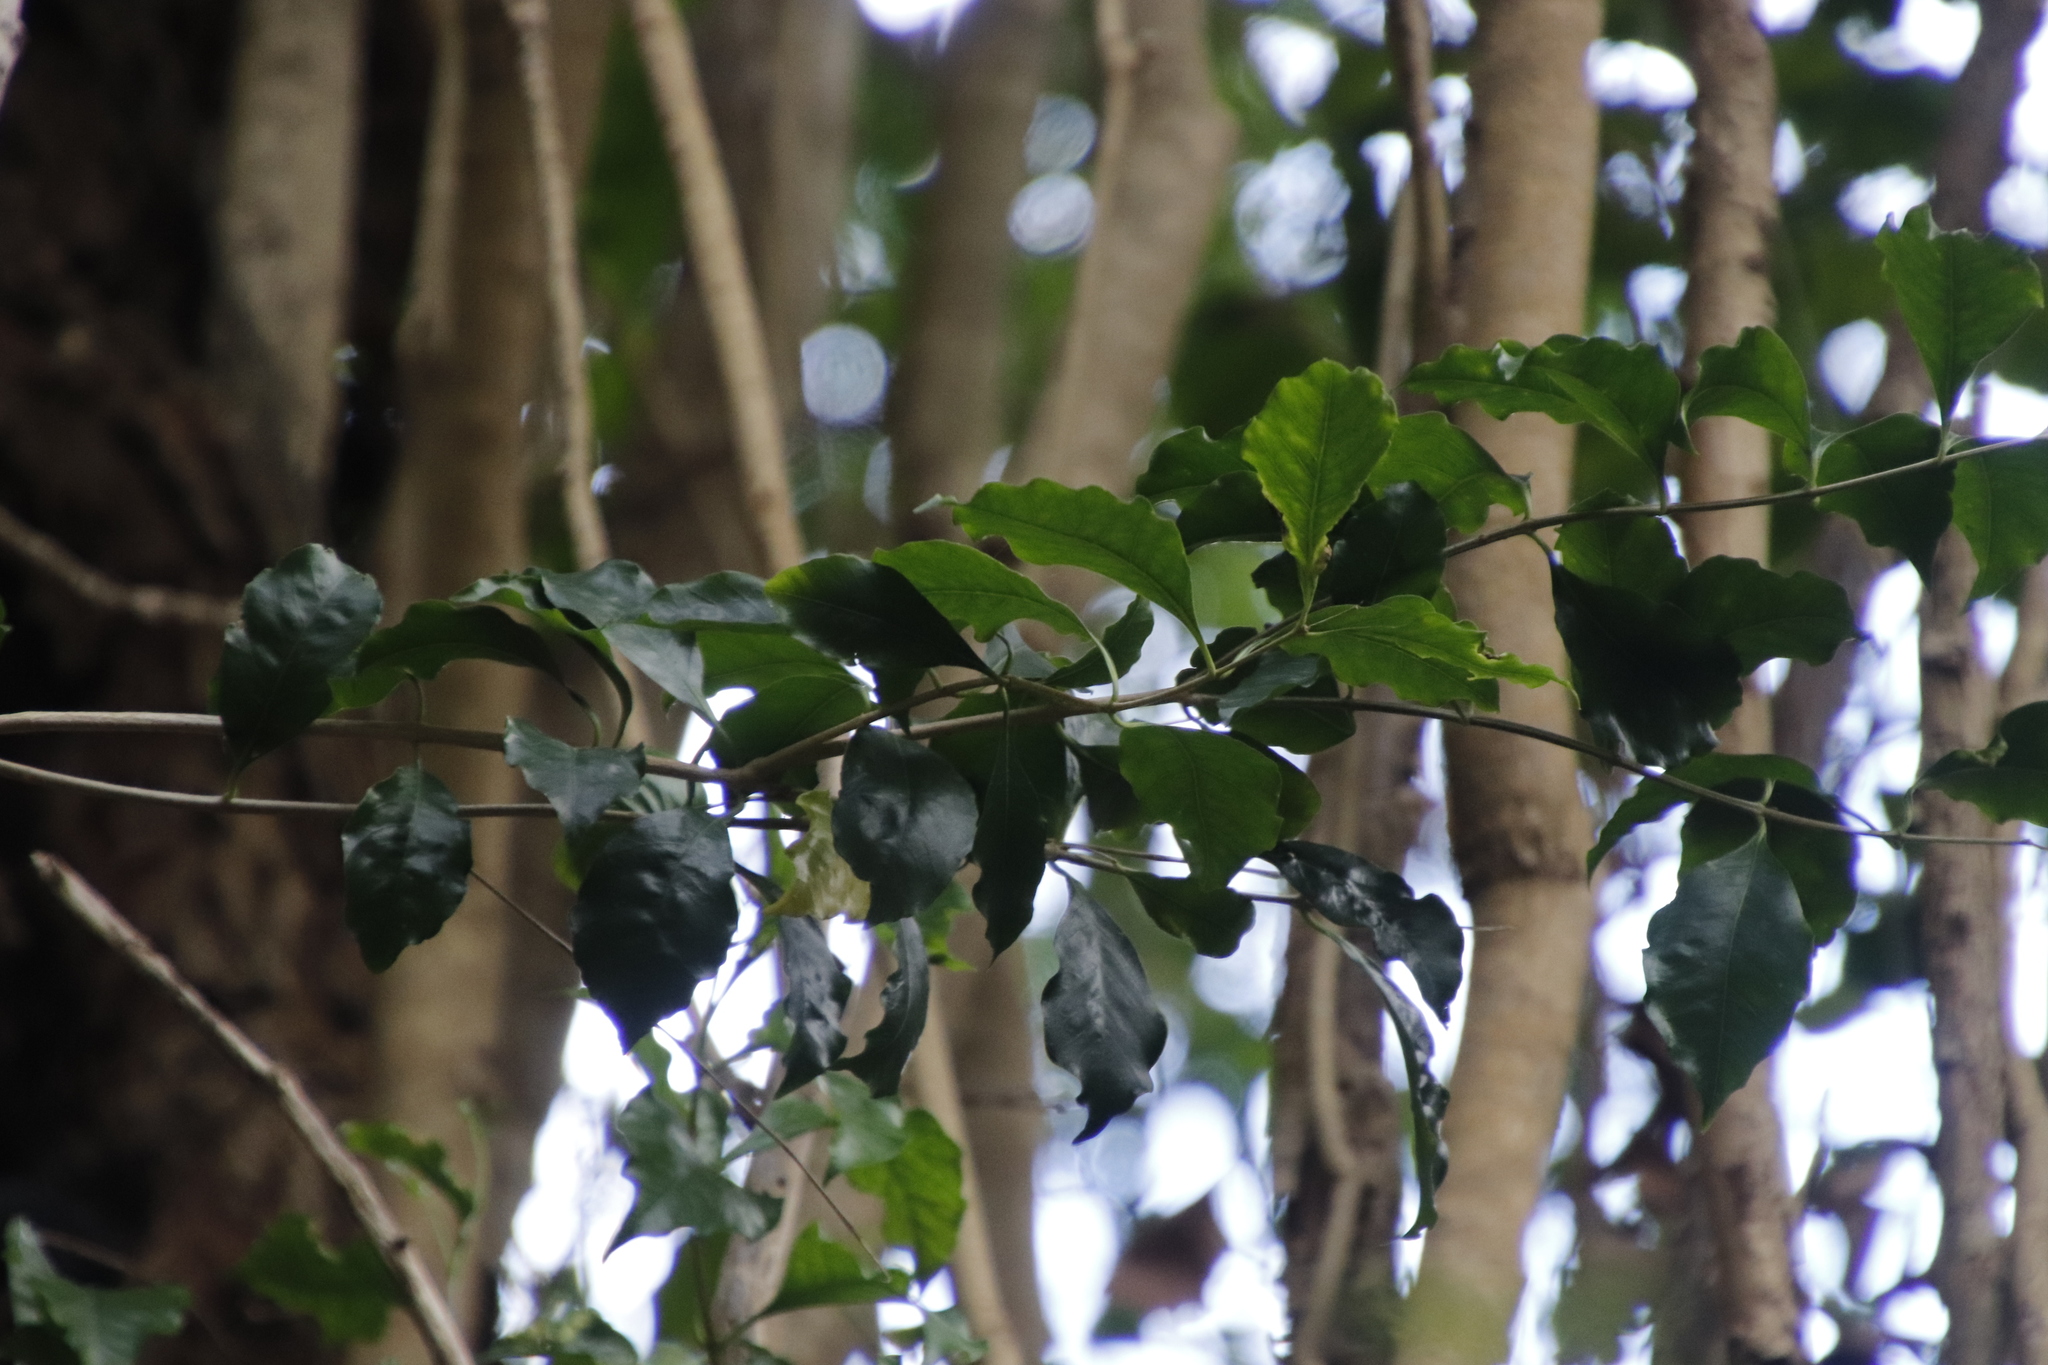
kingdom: Plantae
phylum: Tracheophyta
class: Magnoliopsida
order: Myrtales
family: Penaeaceae
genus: Olinia
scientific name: Olinia ventosa
